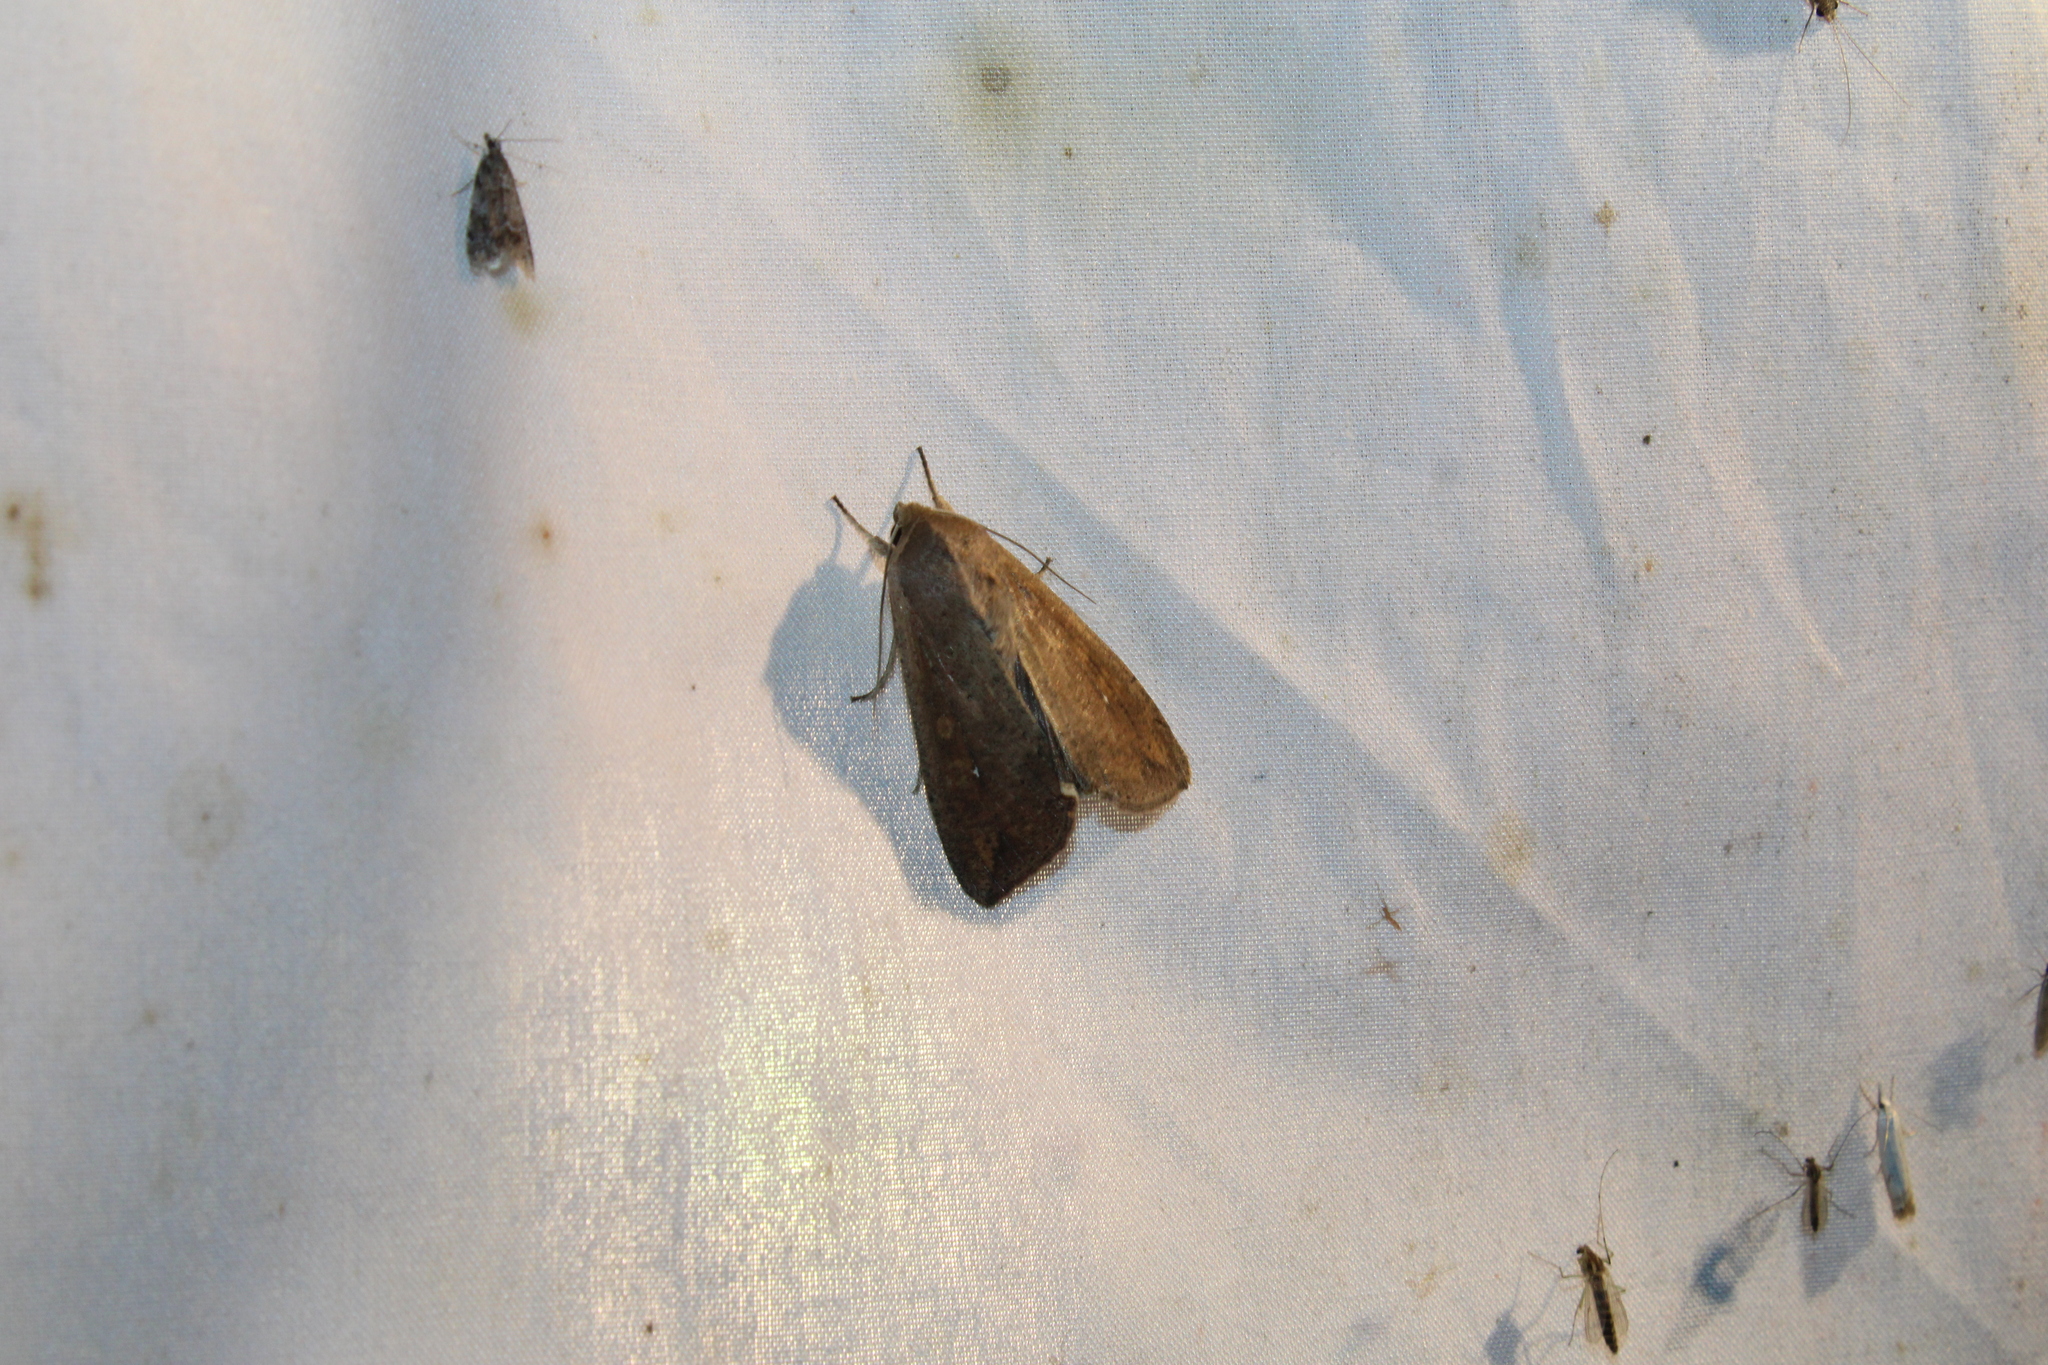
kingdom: Animalia
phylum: Arthropoda
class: Insecta
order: Lepidoptera
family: Noctuidae
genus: Mythimna
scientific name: Mythimna unipuncta
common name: White-speck
